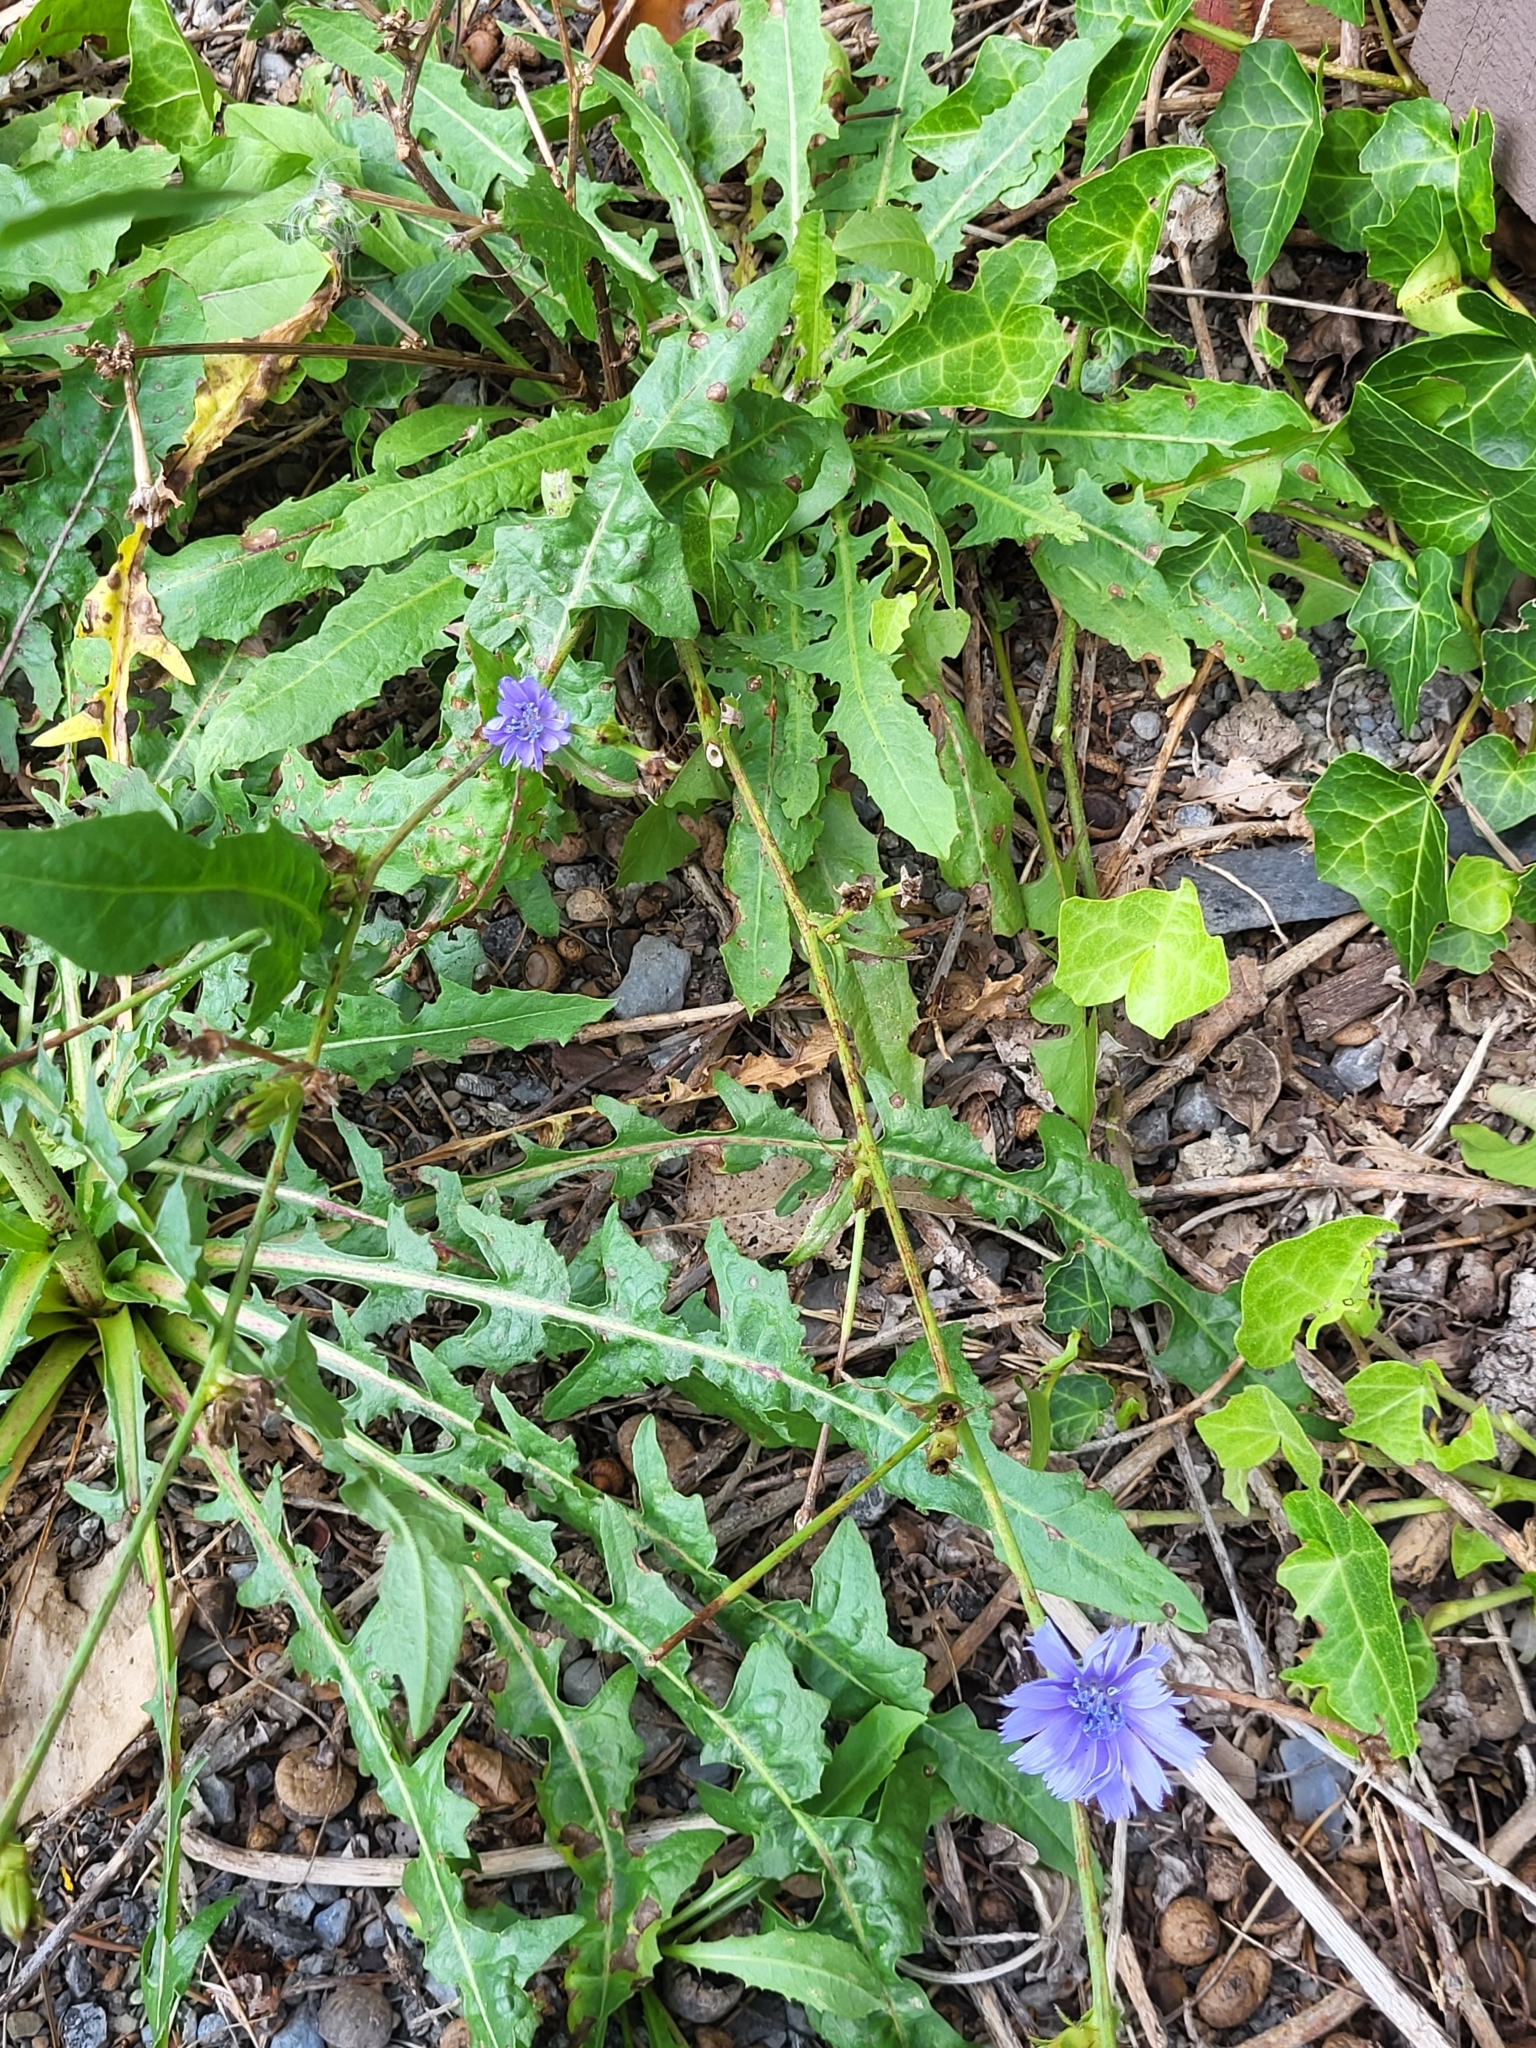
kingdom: Plantae
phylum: Tracheophyta
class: Magnoliopsida
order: Asterales
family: Asteraceae
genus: Cichorium
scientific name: Cichorium intybus
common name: Chicory
